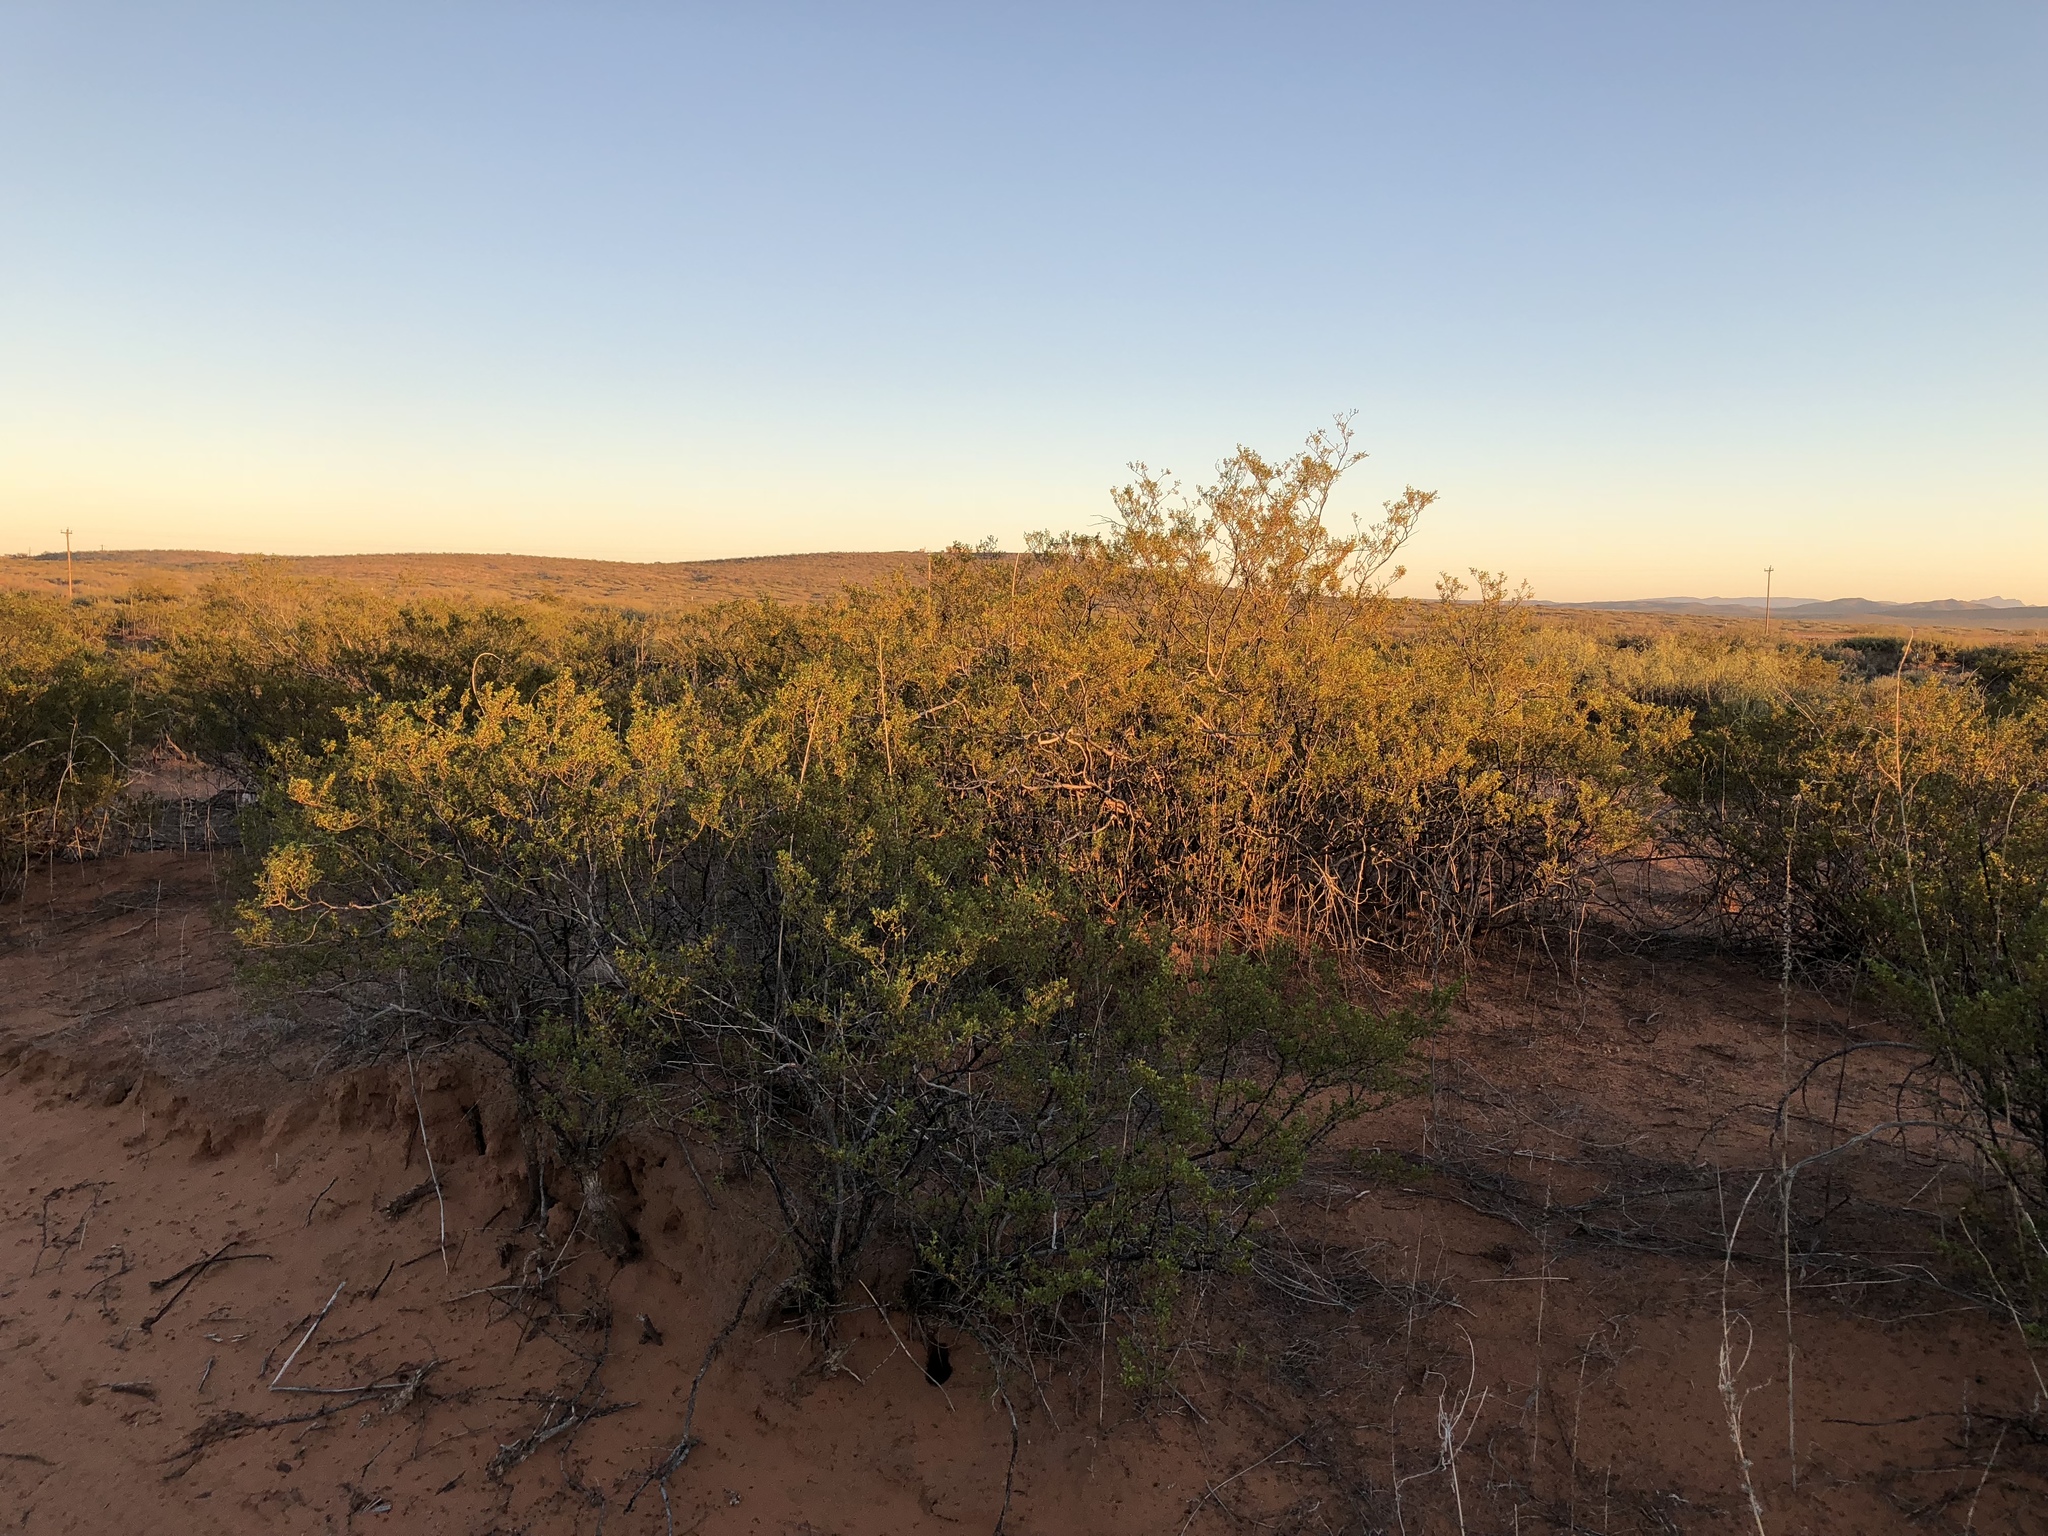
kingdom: Plantae
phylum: Tracheophyta
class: Magnoliopsida
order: Zygophyllales
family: Zygophyllaceae
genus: Larrea
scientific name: Larrea tridentata
